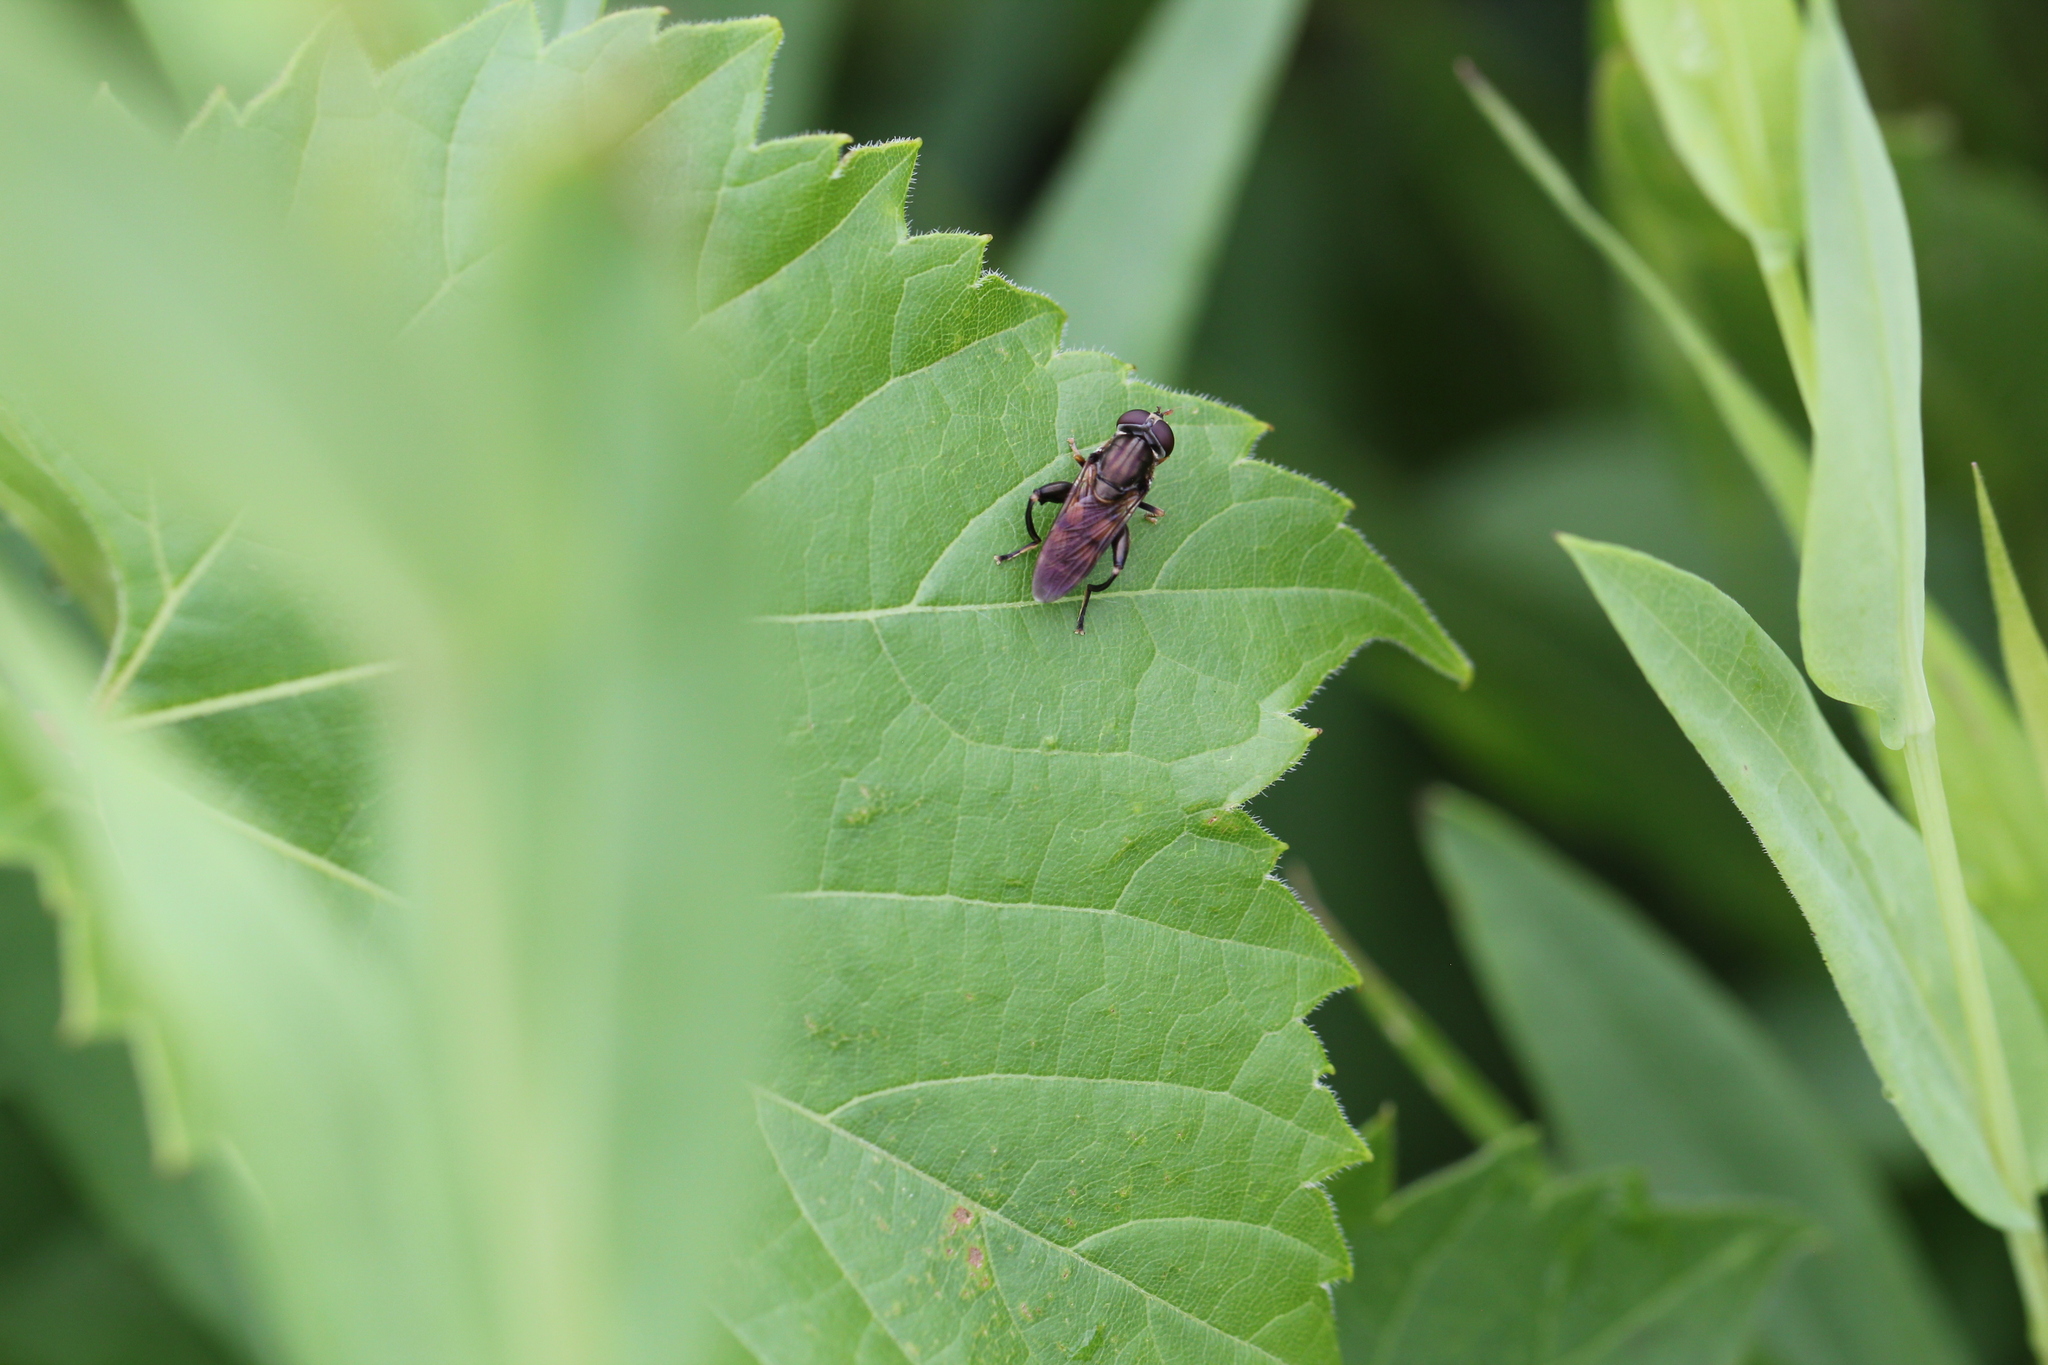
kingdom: Animalia
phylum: Arthropoda
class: Insecta
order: Diptera
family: Syrphidae
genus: Tropidia
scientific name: Tropidia quadrata
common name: Common thick-legged fly
